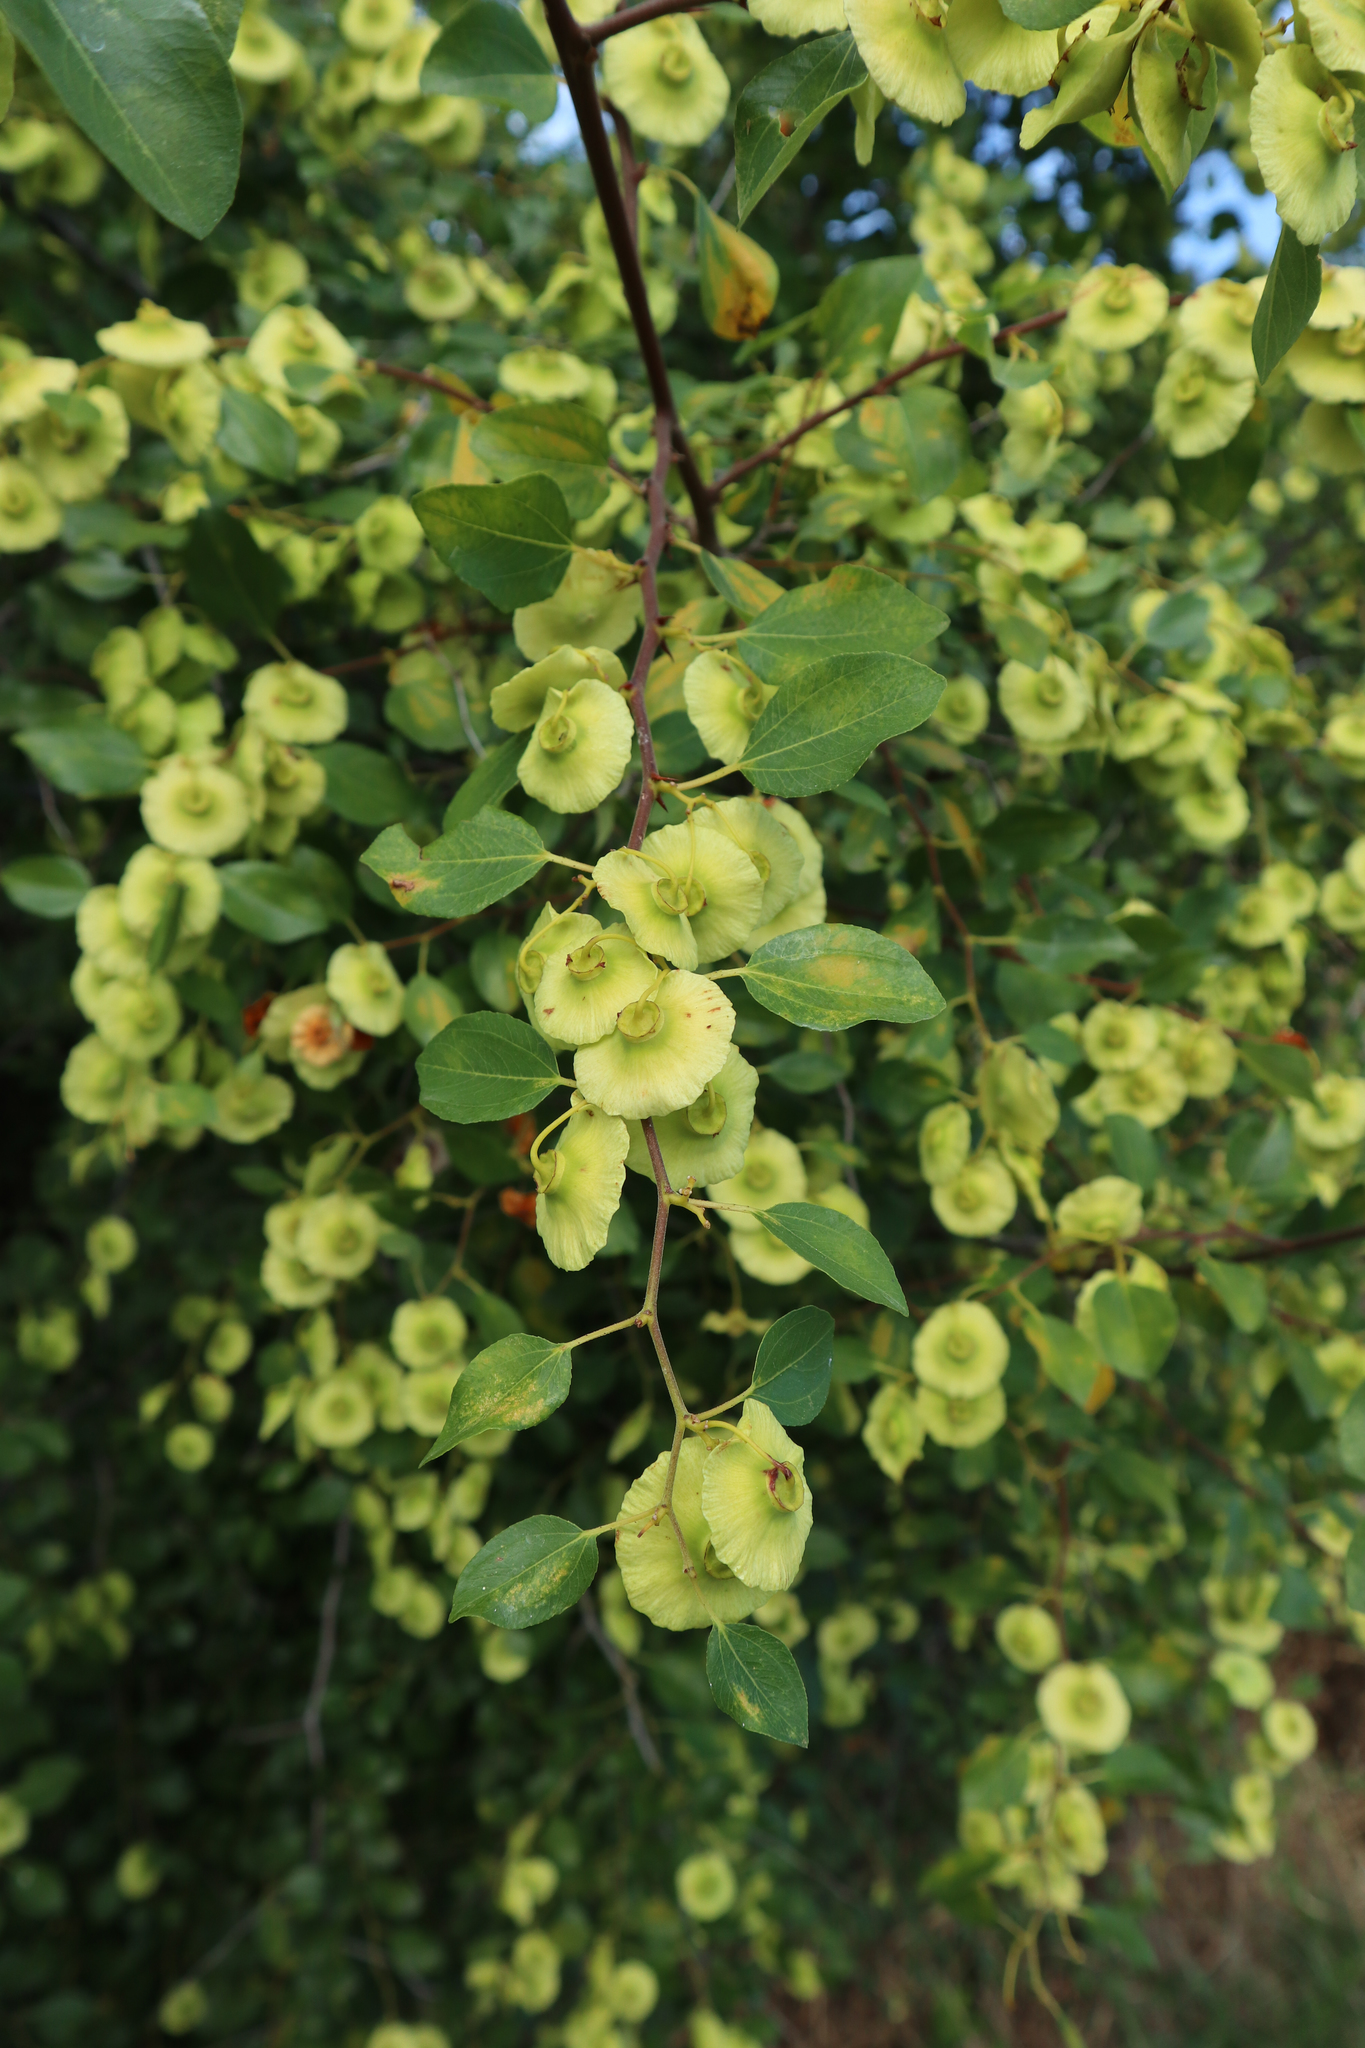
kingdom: Plantae
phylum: Tracheophyta
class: Magnoliopsida
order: Rosales
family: Rhamnaceae
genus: Paliurus
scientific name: Paliurus spina-christi
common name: Jeruselem thorn
